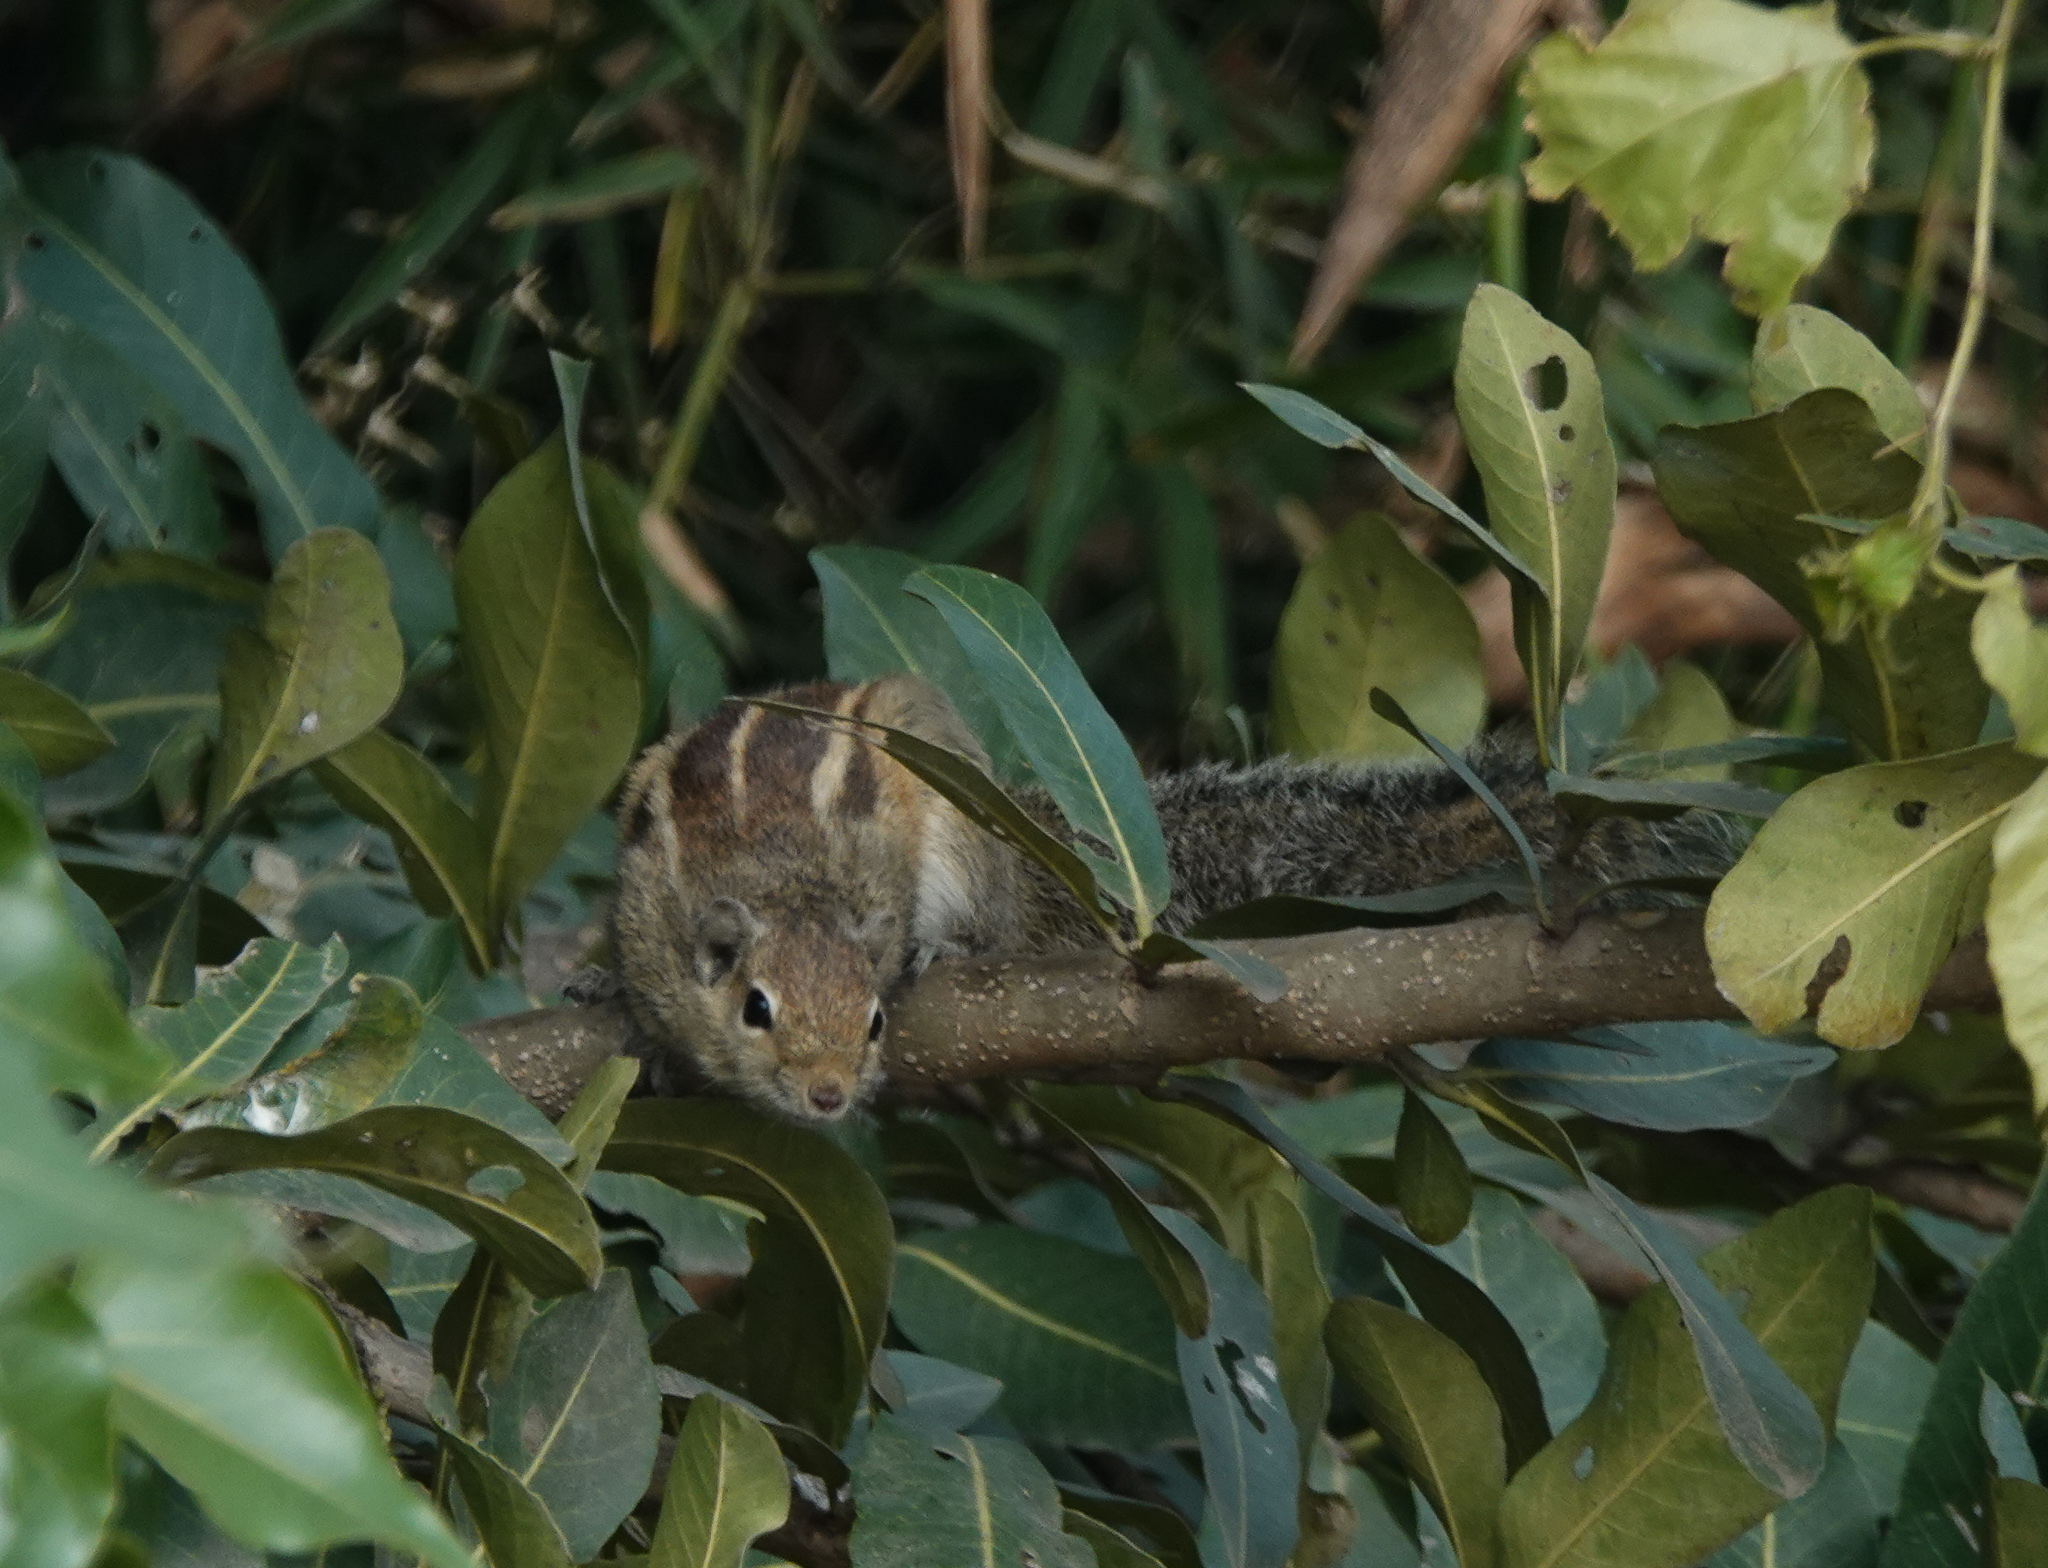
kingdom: Animalia
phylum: Chordata
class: Mammalia
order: Rodentia
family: Sciuridae
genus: Funambulus
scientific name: Funambulus palmarum
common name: Indian palm squirrel
